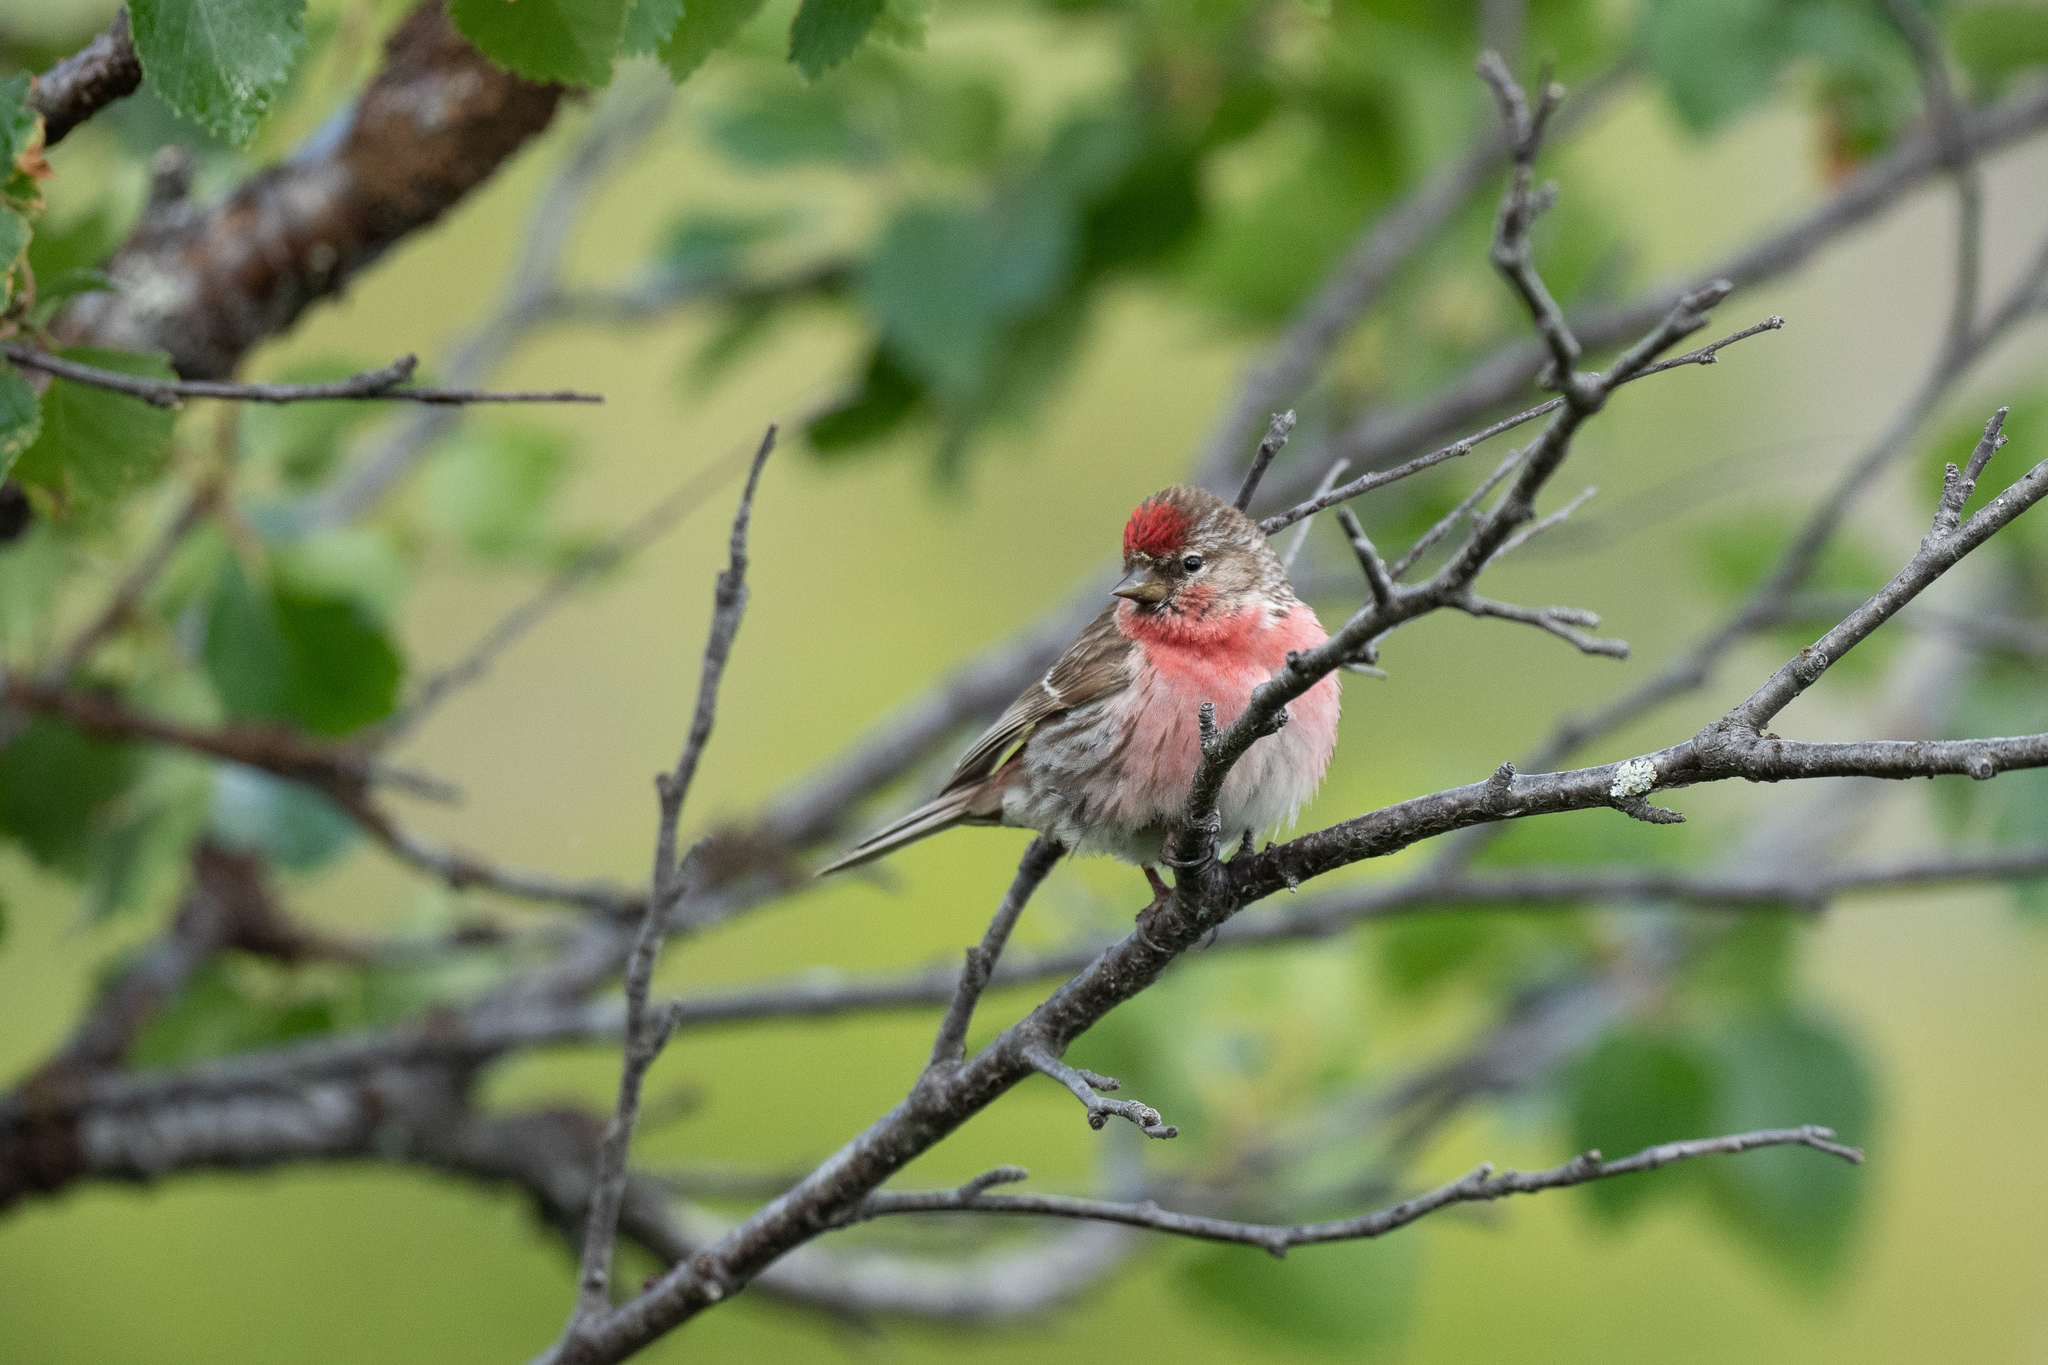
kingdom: Animalia
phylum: Chordata
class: Aves
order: Passeriformes
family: Fringillidae
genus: Acanthis
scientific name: Acanthis flammea
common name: Common redpoll
